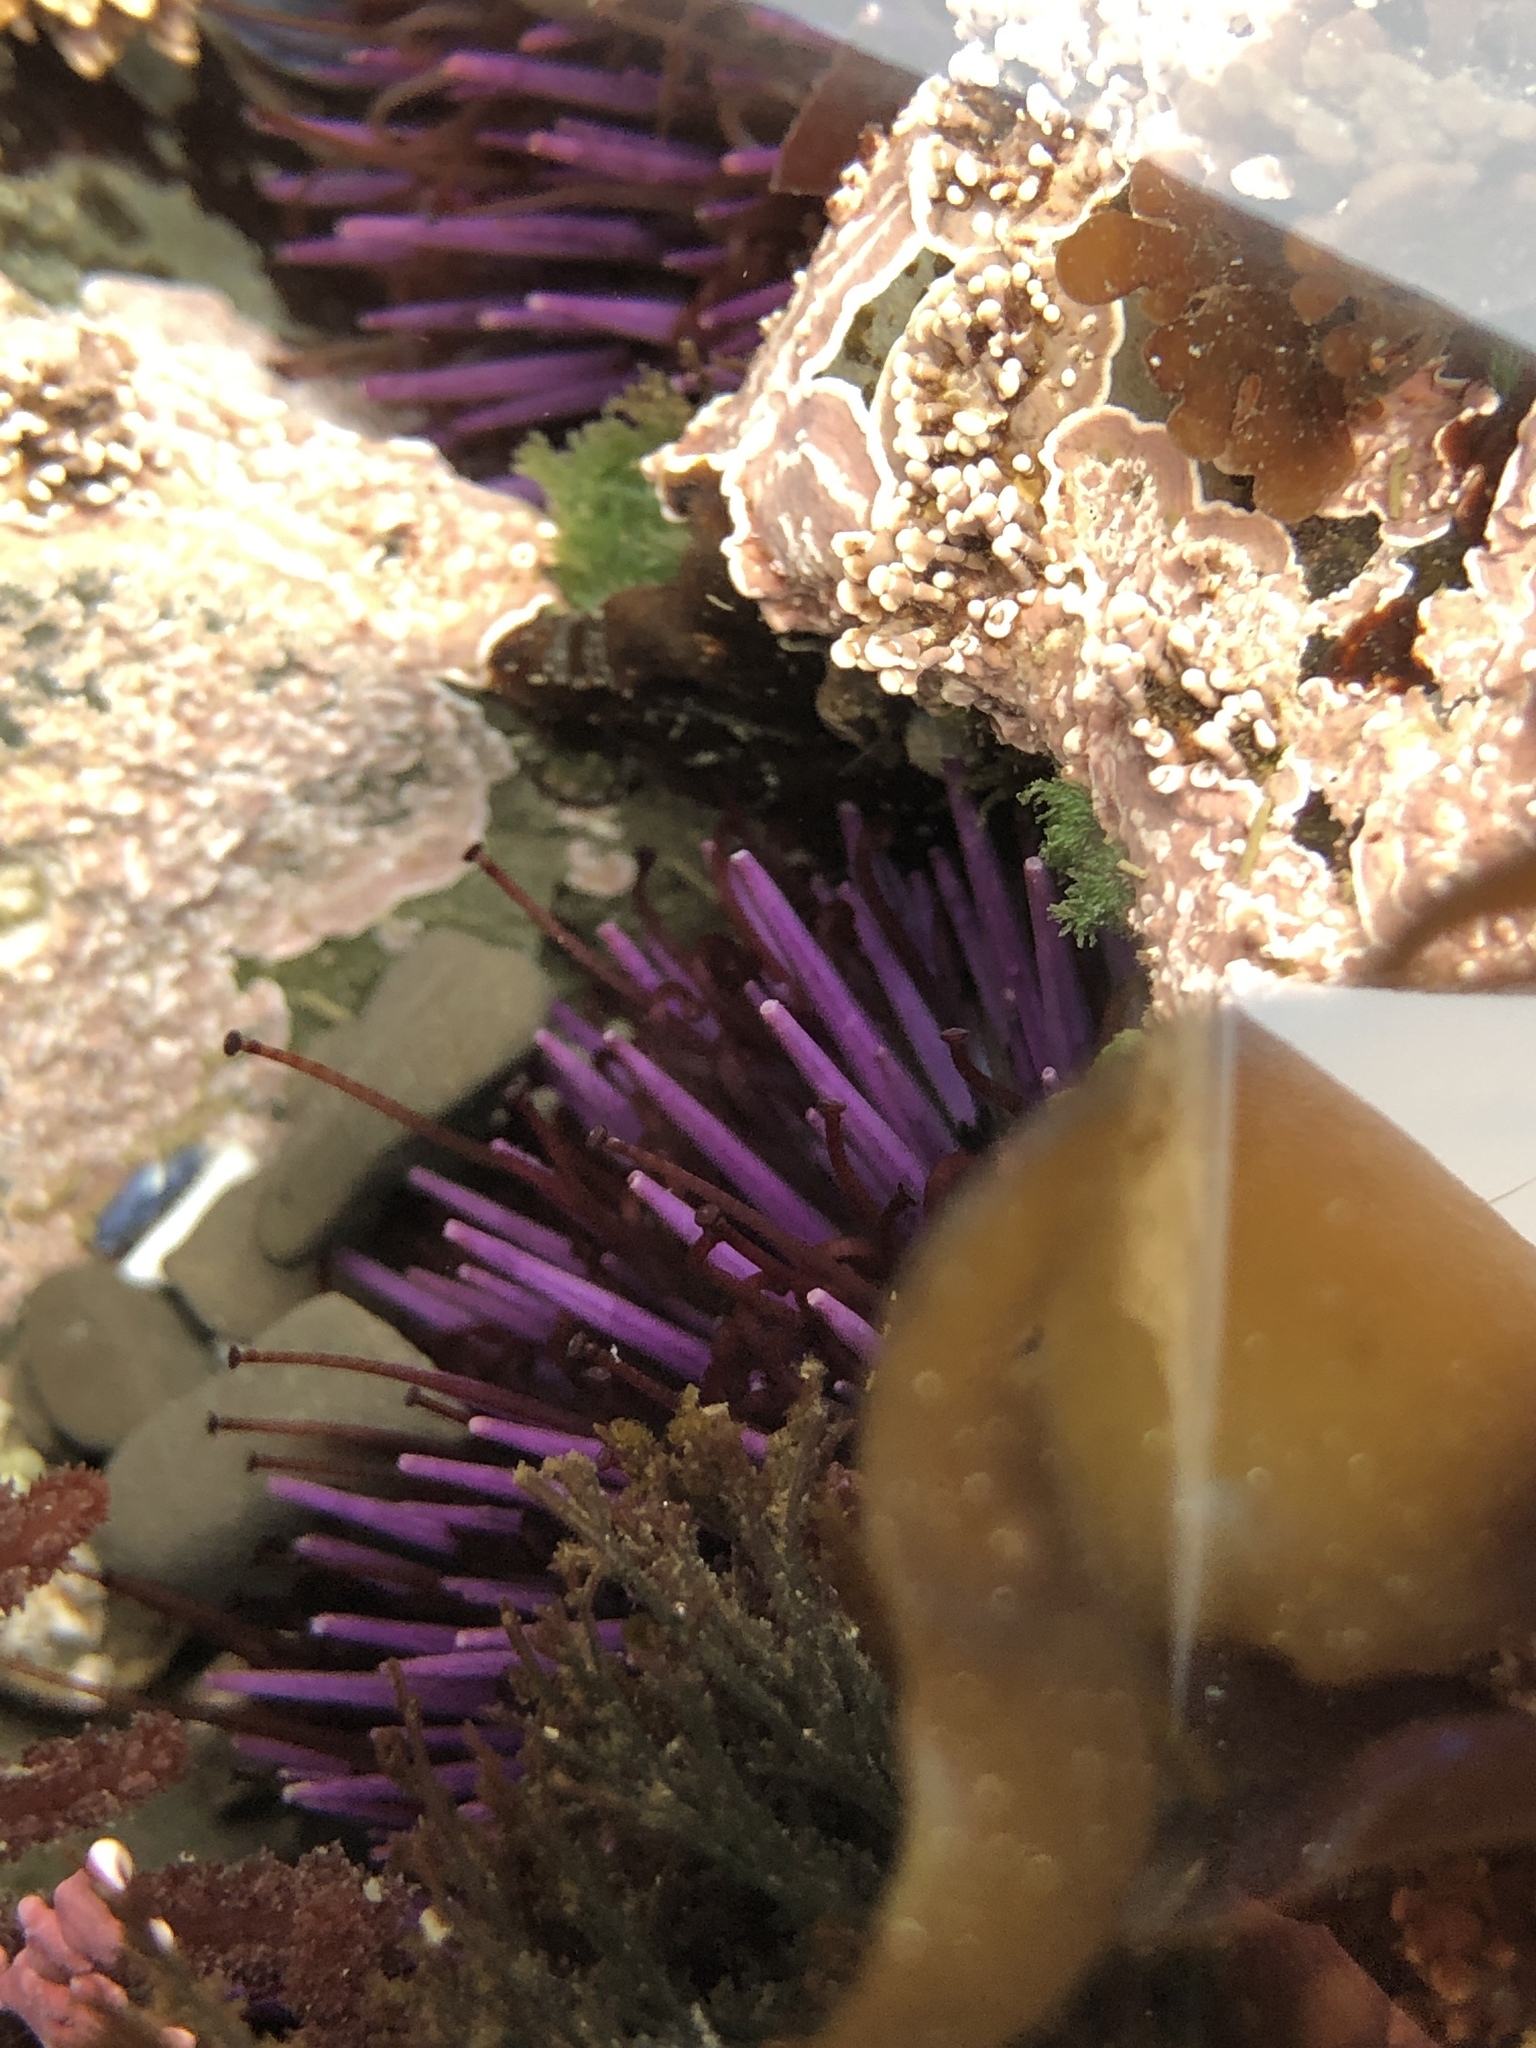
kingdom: Animalia
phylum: Echinodermata
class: Echinoidea
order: Camarodonta
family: Strongylocentrotidae
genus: Strongylocentrotus
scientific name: Strongylocentrotus purpuratus
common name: Purple sea urchin
